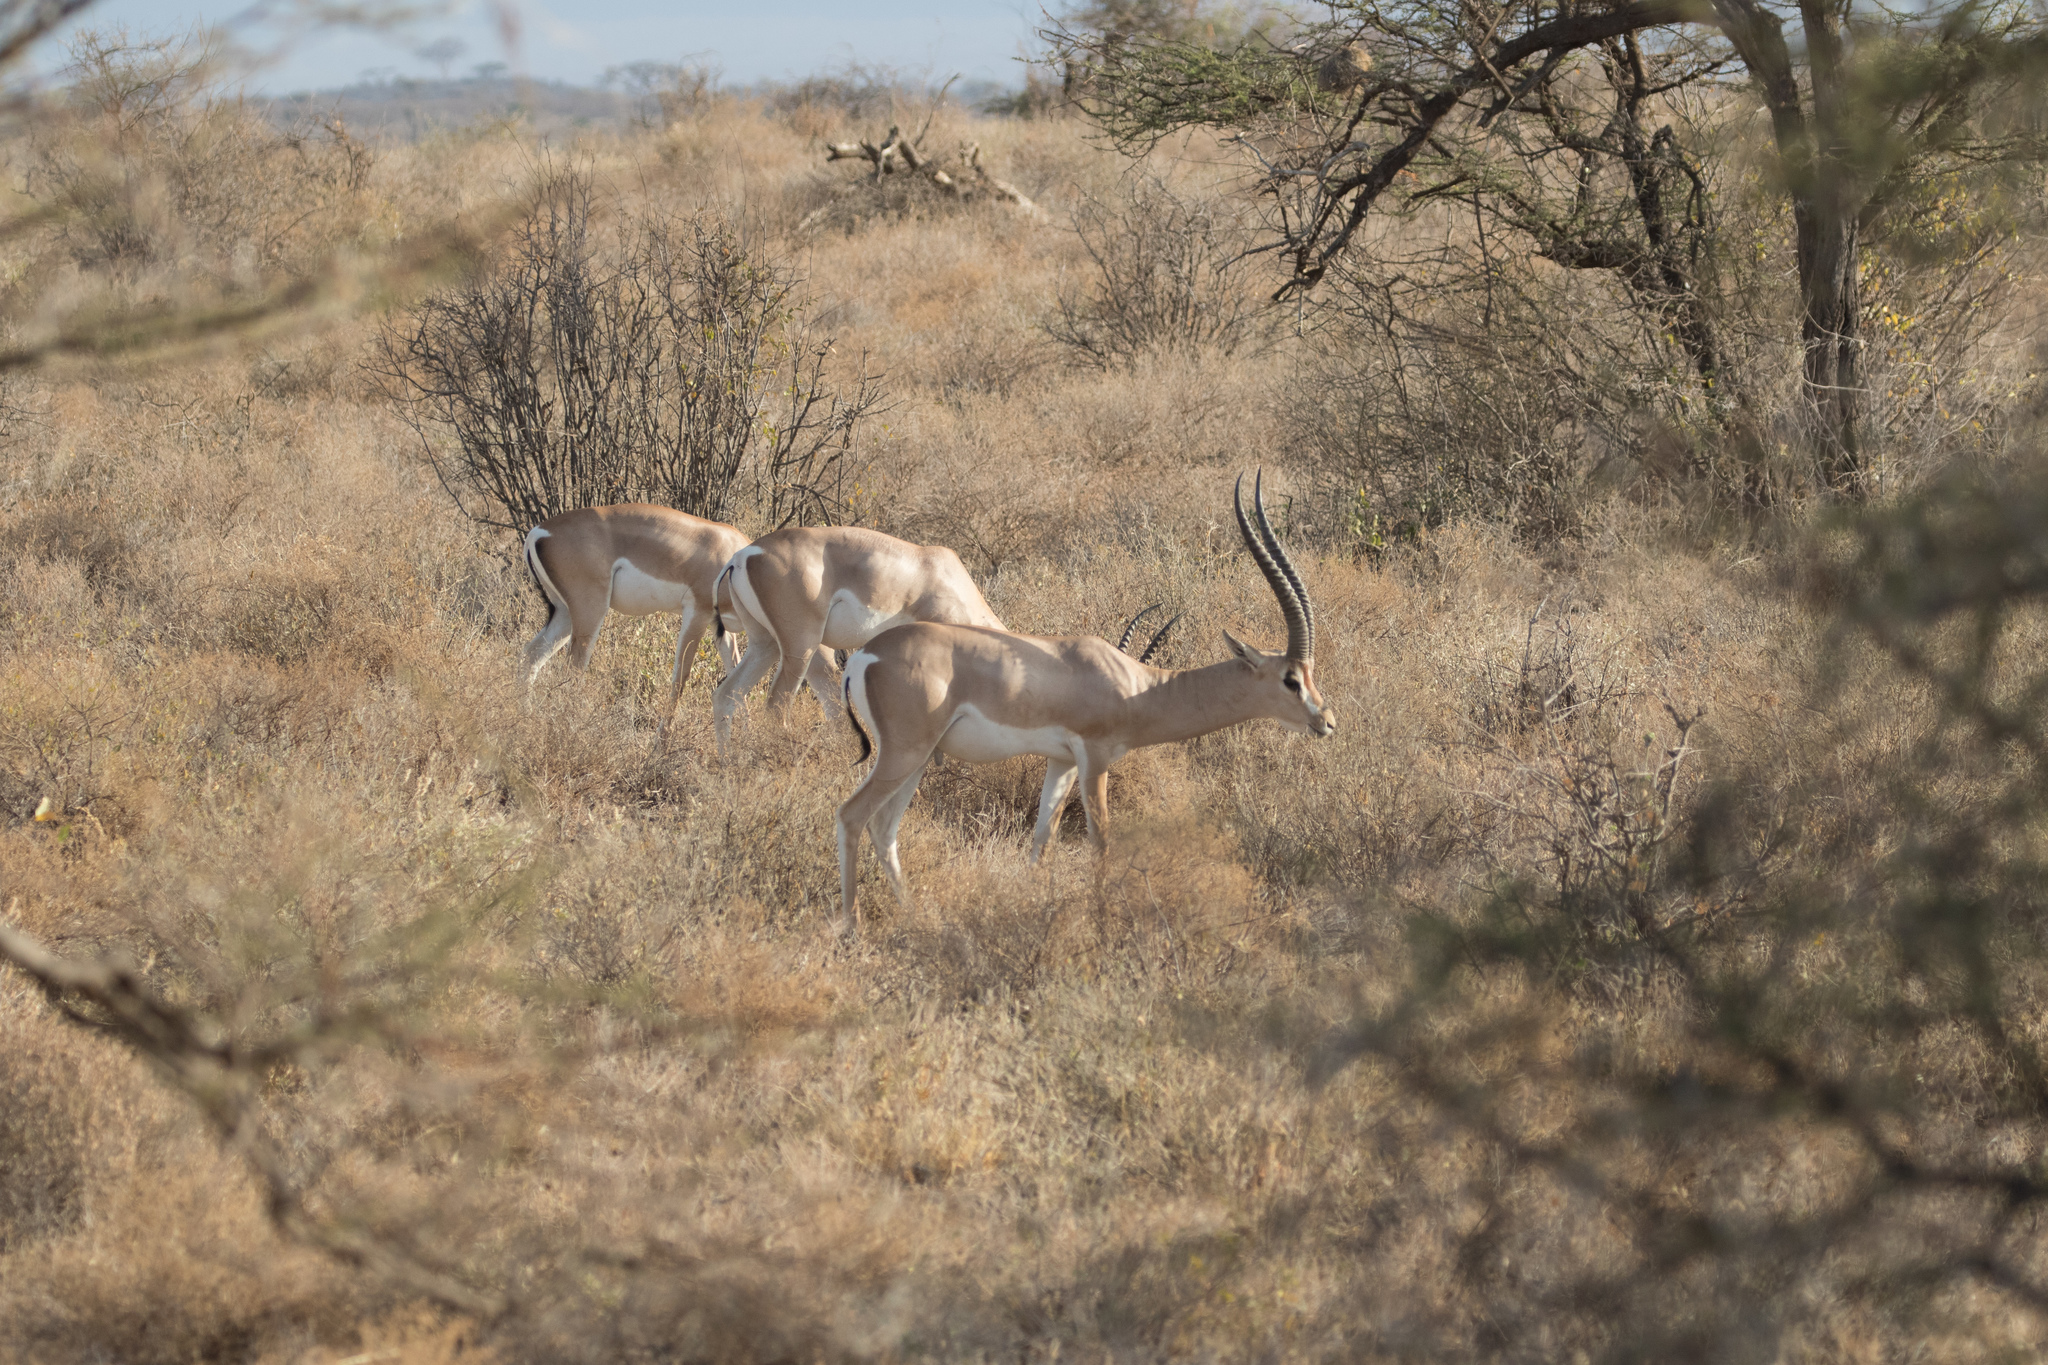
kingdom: Animalia
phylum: Chordata
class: Mammalia
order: Artiodactyla
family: Bovidae
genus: Nanger
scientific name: Nanger granti
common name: Grant's gazelle
